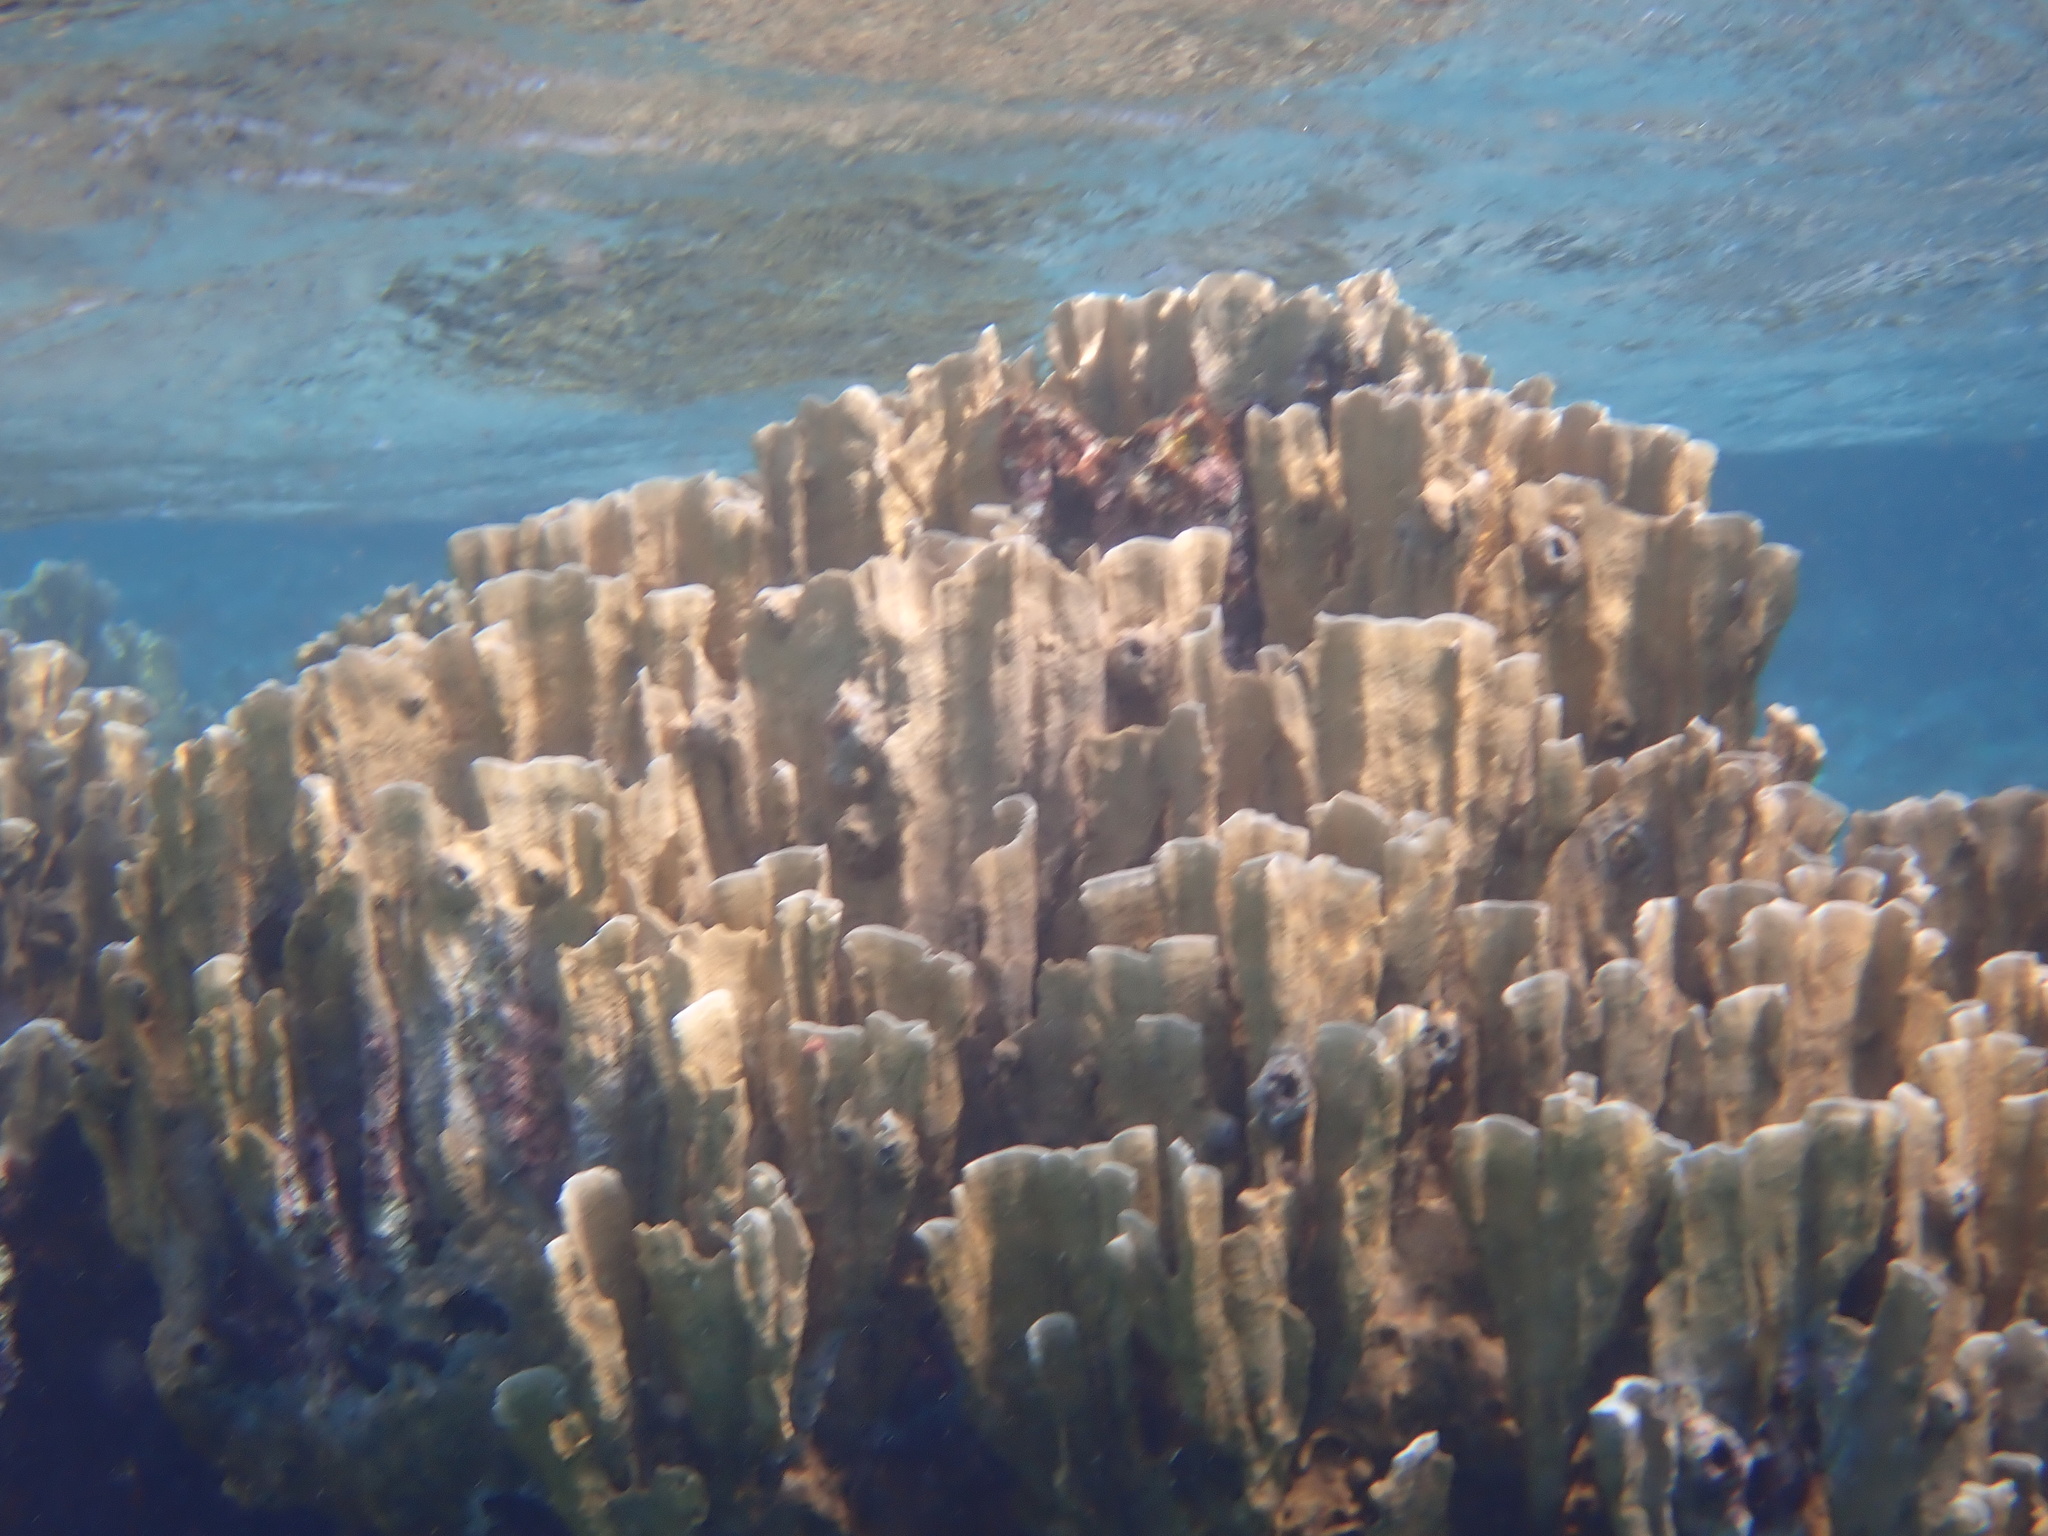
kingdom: Animalia
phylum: Cnidaria
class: Hydrozoa
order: Anthoathecata
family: Milleporidae
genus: Millepora
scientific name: Millepora complanata
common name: Bladed fire coral
